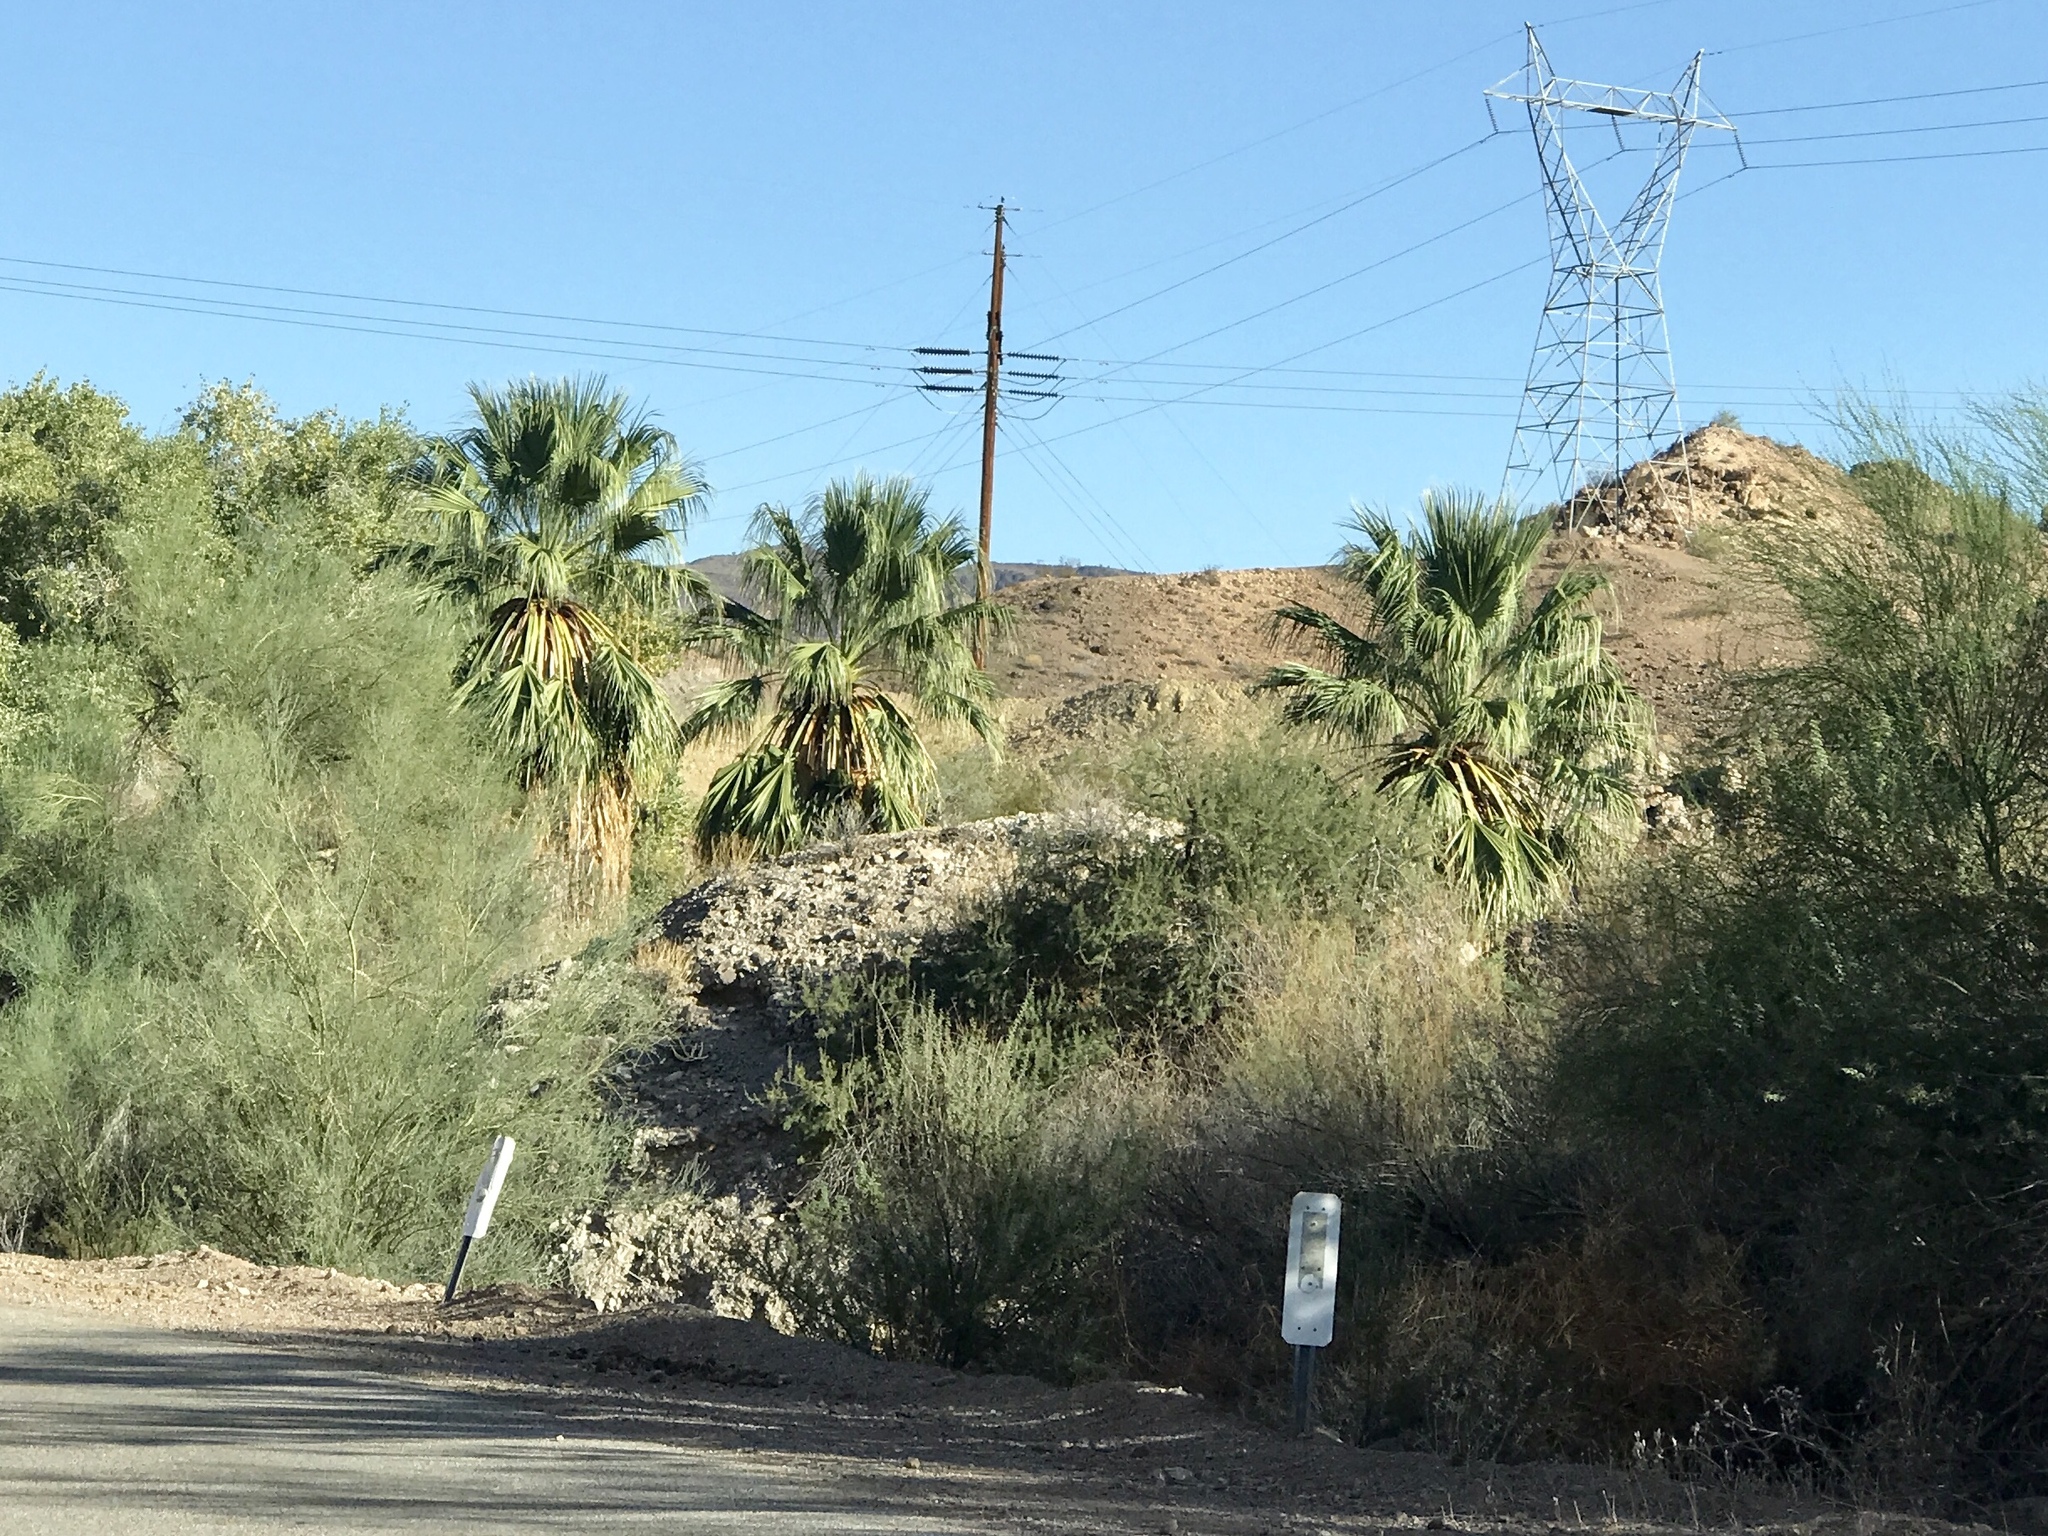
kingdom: Plantae
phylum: Tracheophyta
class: Liliopsida
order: Arecales
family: Arecaceae
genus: Washingtonia
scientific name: Washingtonia filifera
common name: California fan palm
